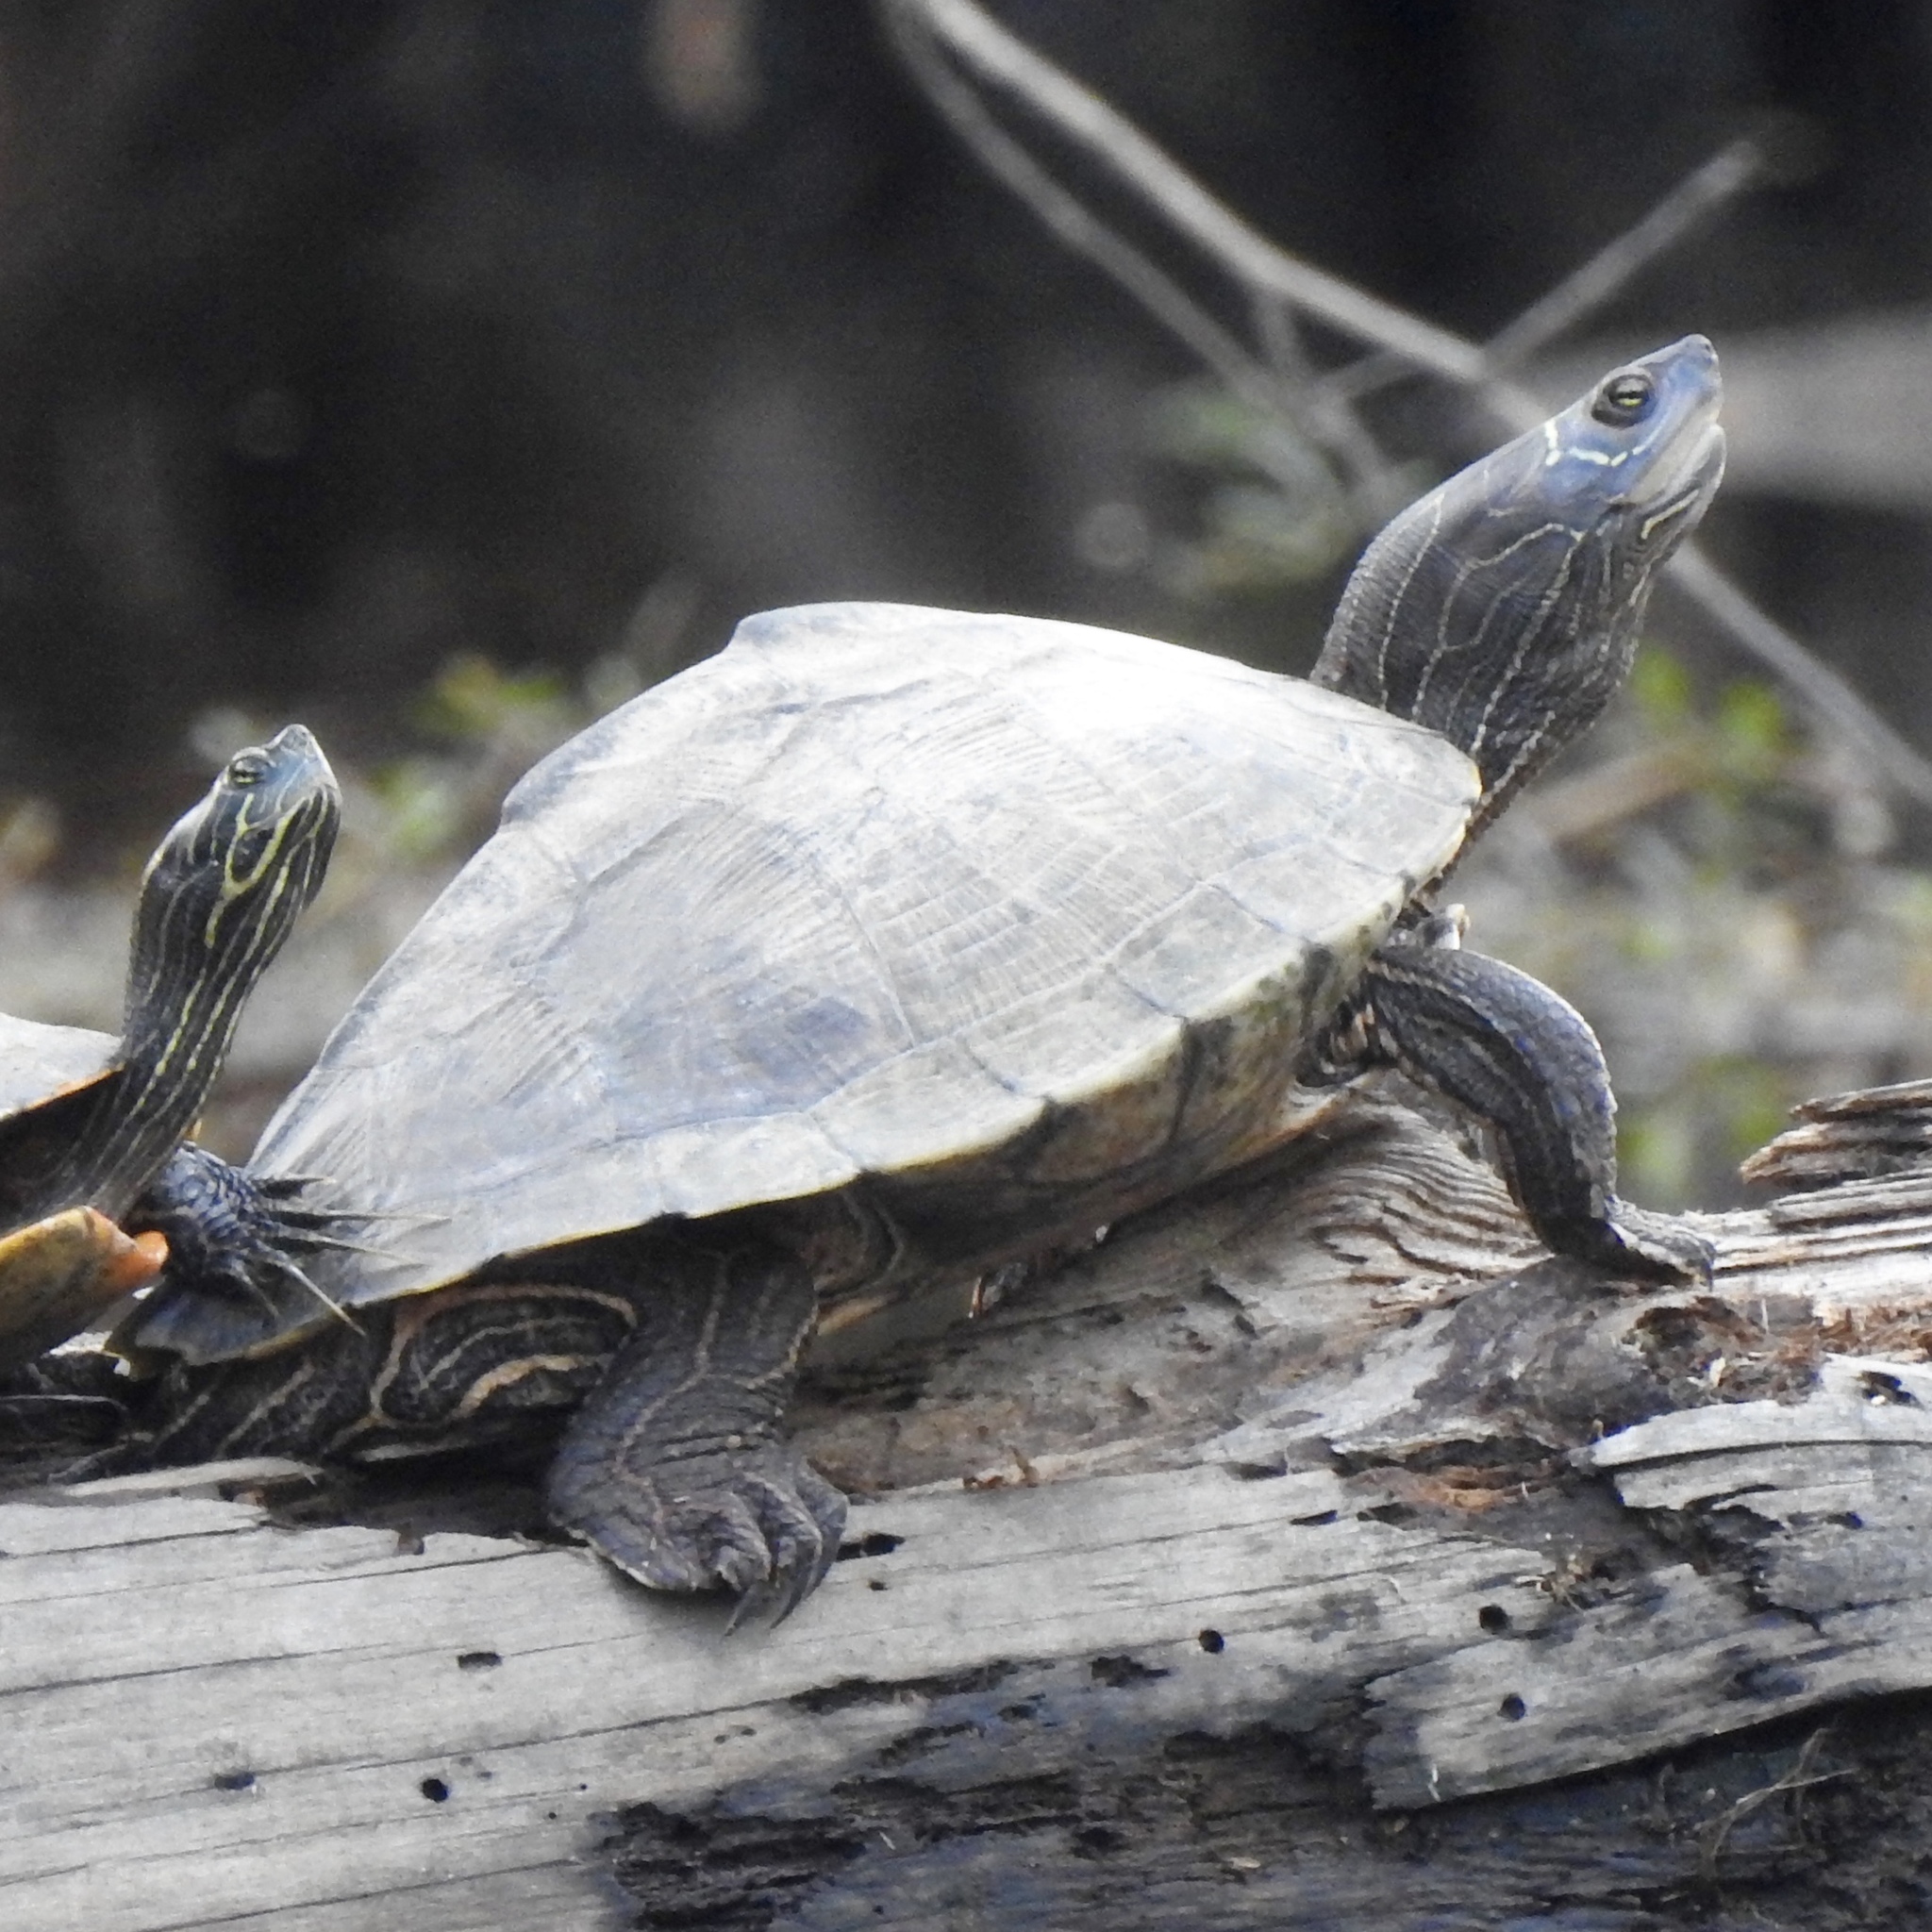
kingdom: Animalia
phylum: Chordata
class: Testudines
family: Emydidae
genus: Graptemys
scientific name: Graptemys pseudogeographica
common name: False map turtle
